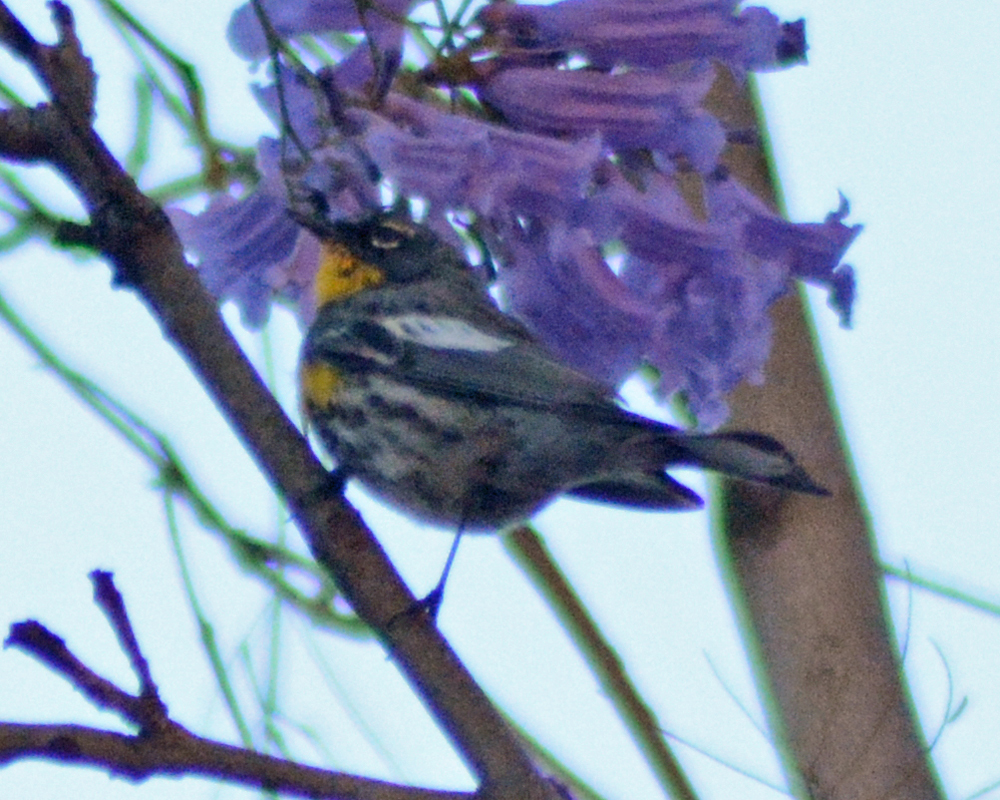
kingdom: Animalia
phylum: Chordata
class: Aves
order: Passeriformes
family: Parulidae
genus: Setophaga
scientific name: Setophaga auduboni
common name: Audubon's warbler
